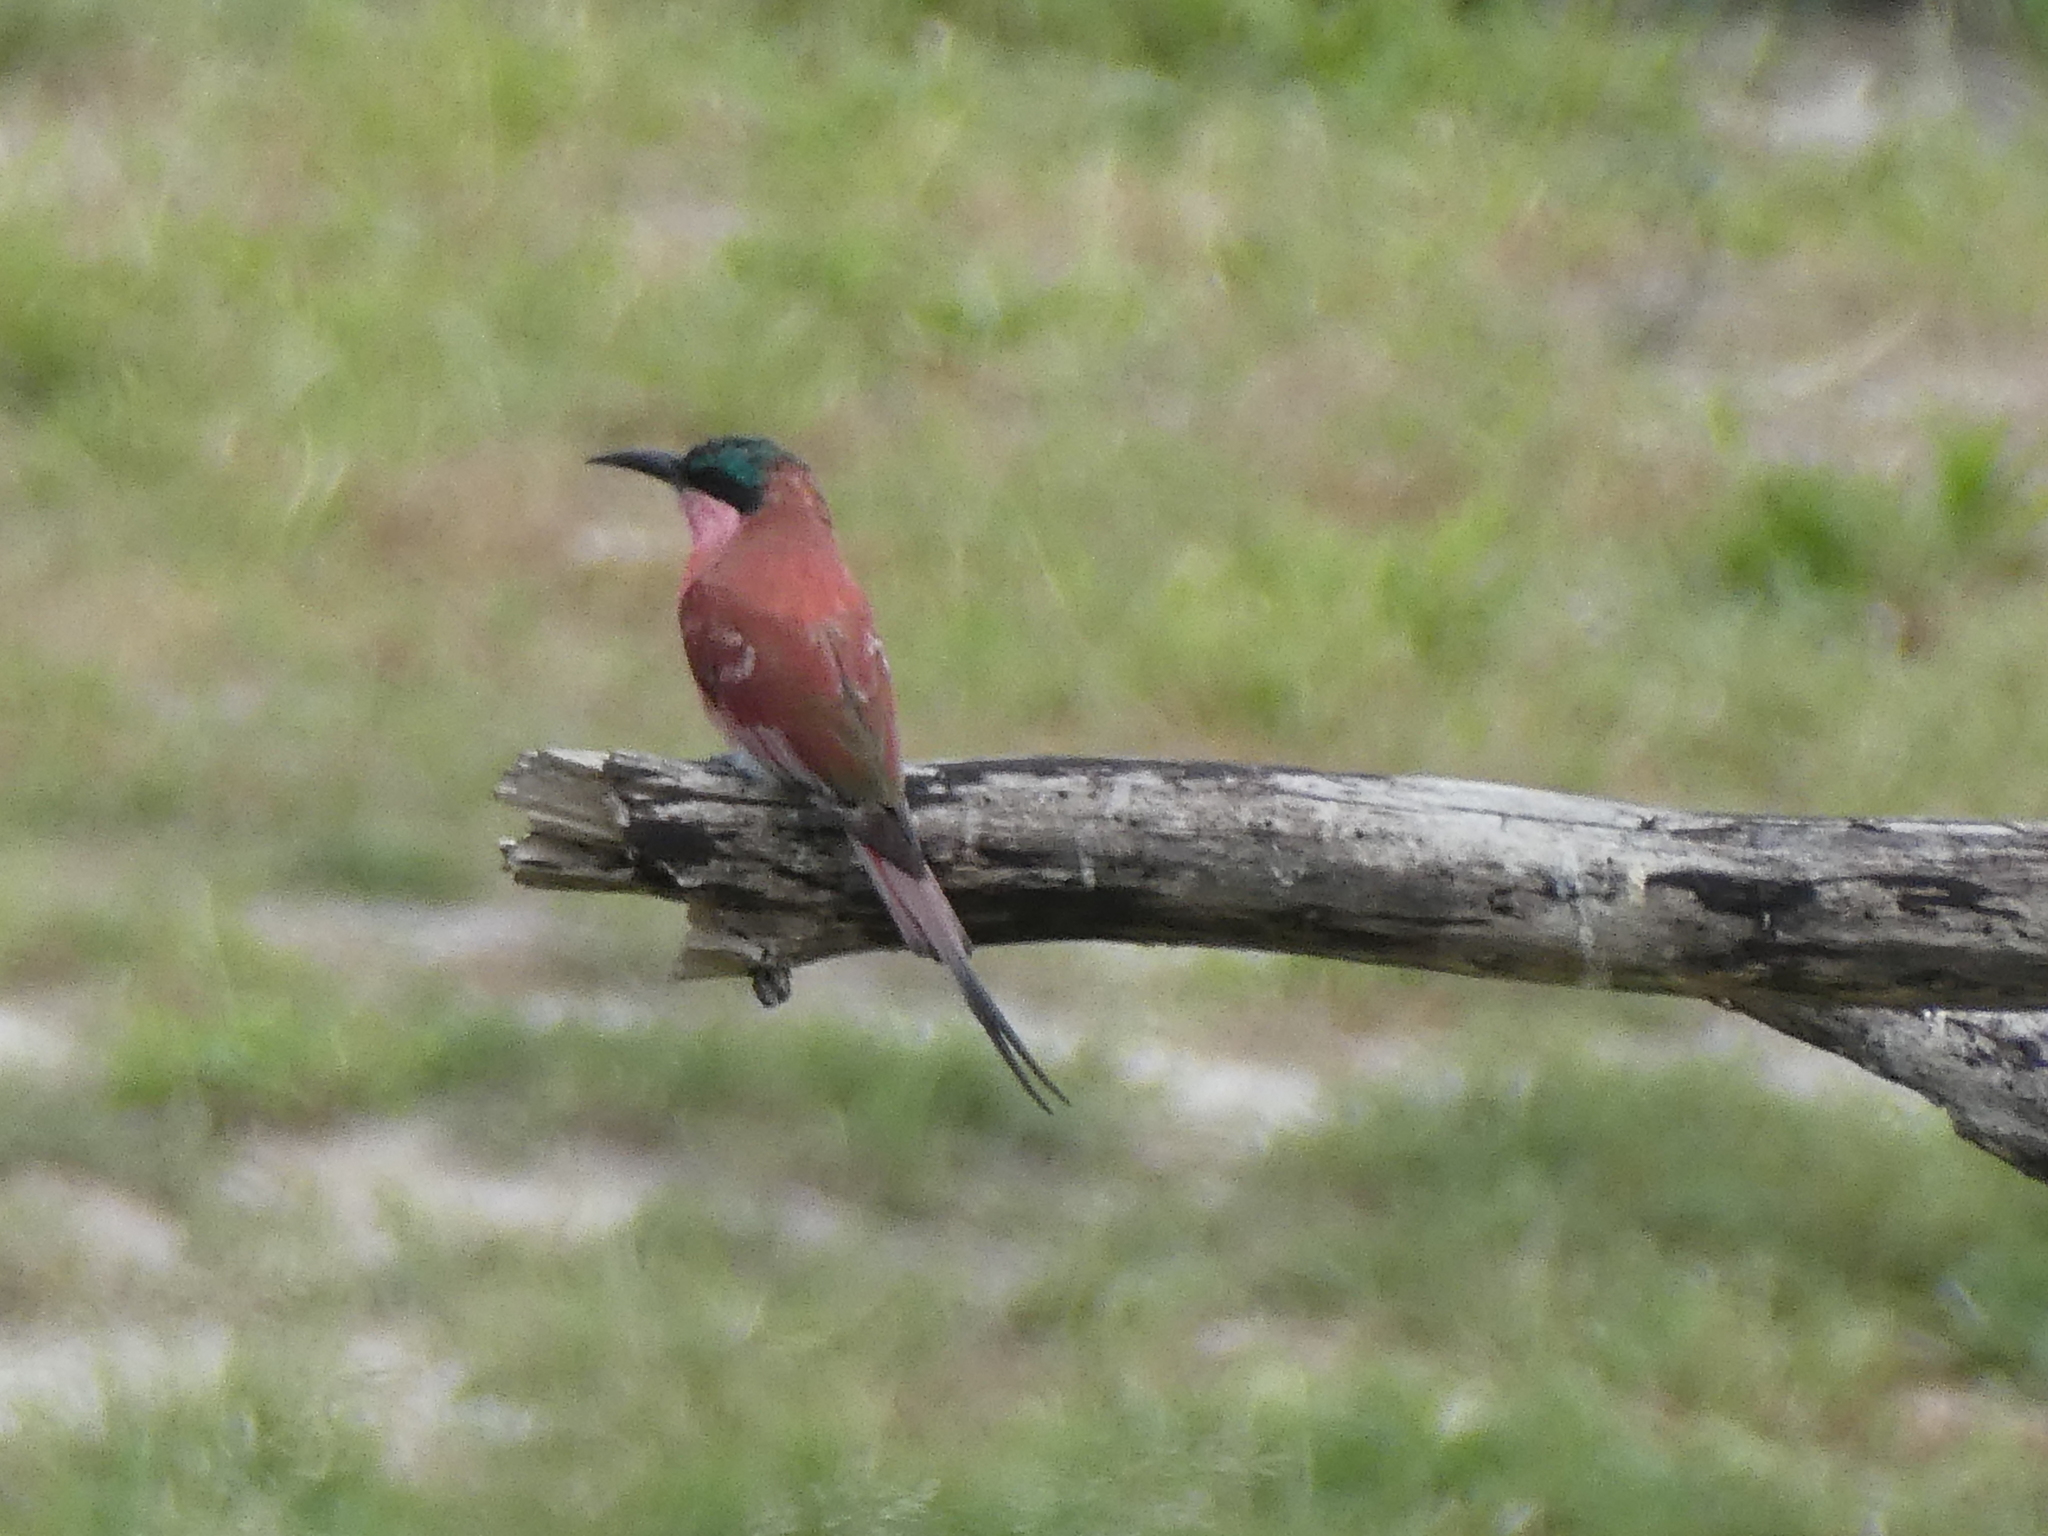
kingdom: Animalia
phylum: Chordata
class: Aves
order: Coraciiformes
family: Meropidae
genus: Merops
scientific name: Merops nubicoides
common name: Southern carmine bee-eater
